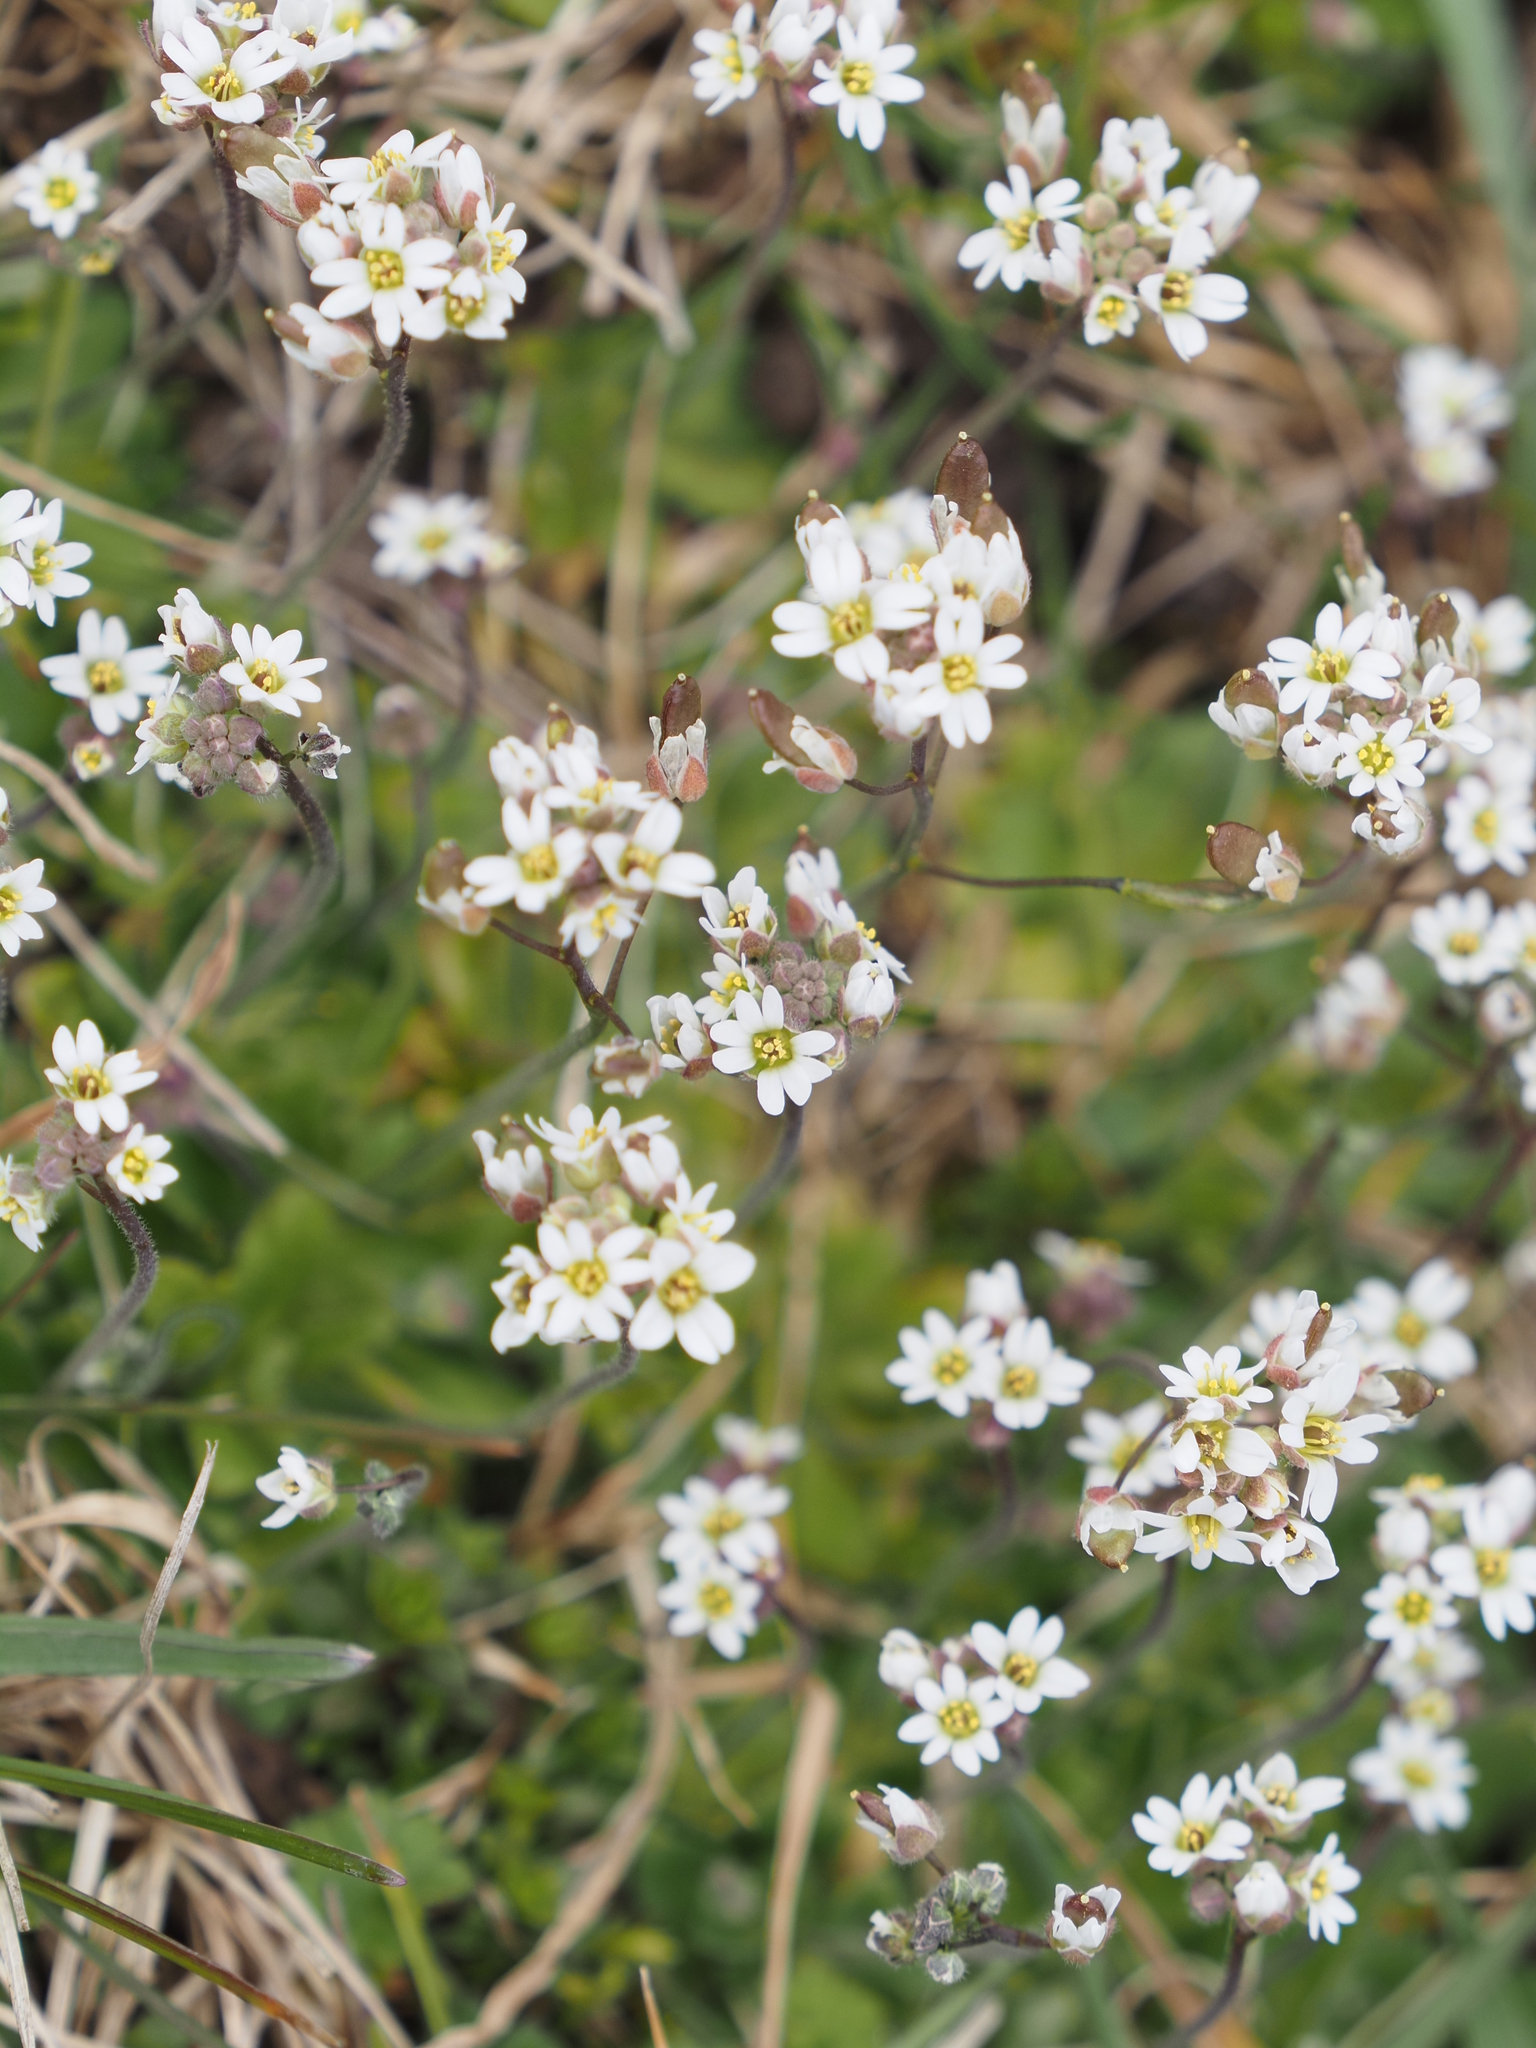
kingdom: Plantae
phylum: Tracheophyta
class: Magnoliopsida
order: Brassicales
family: Brassicaceae
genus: Draba
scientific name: Draba verna
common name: Spring draba
